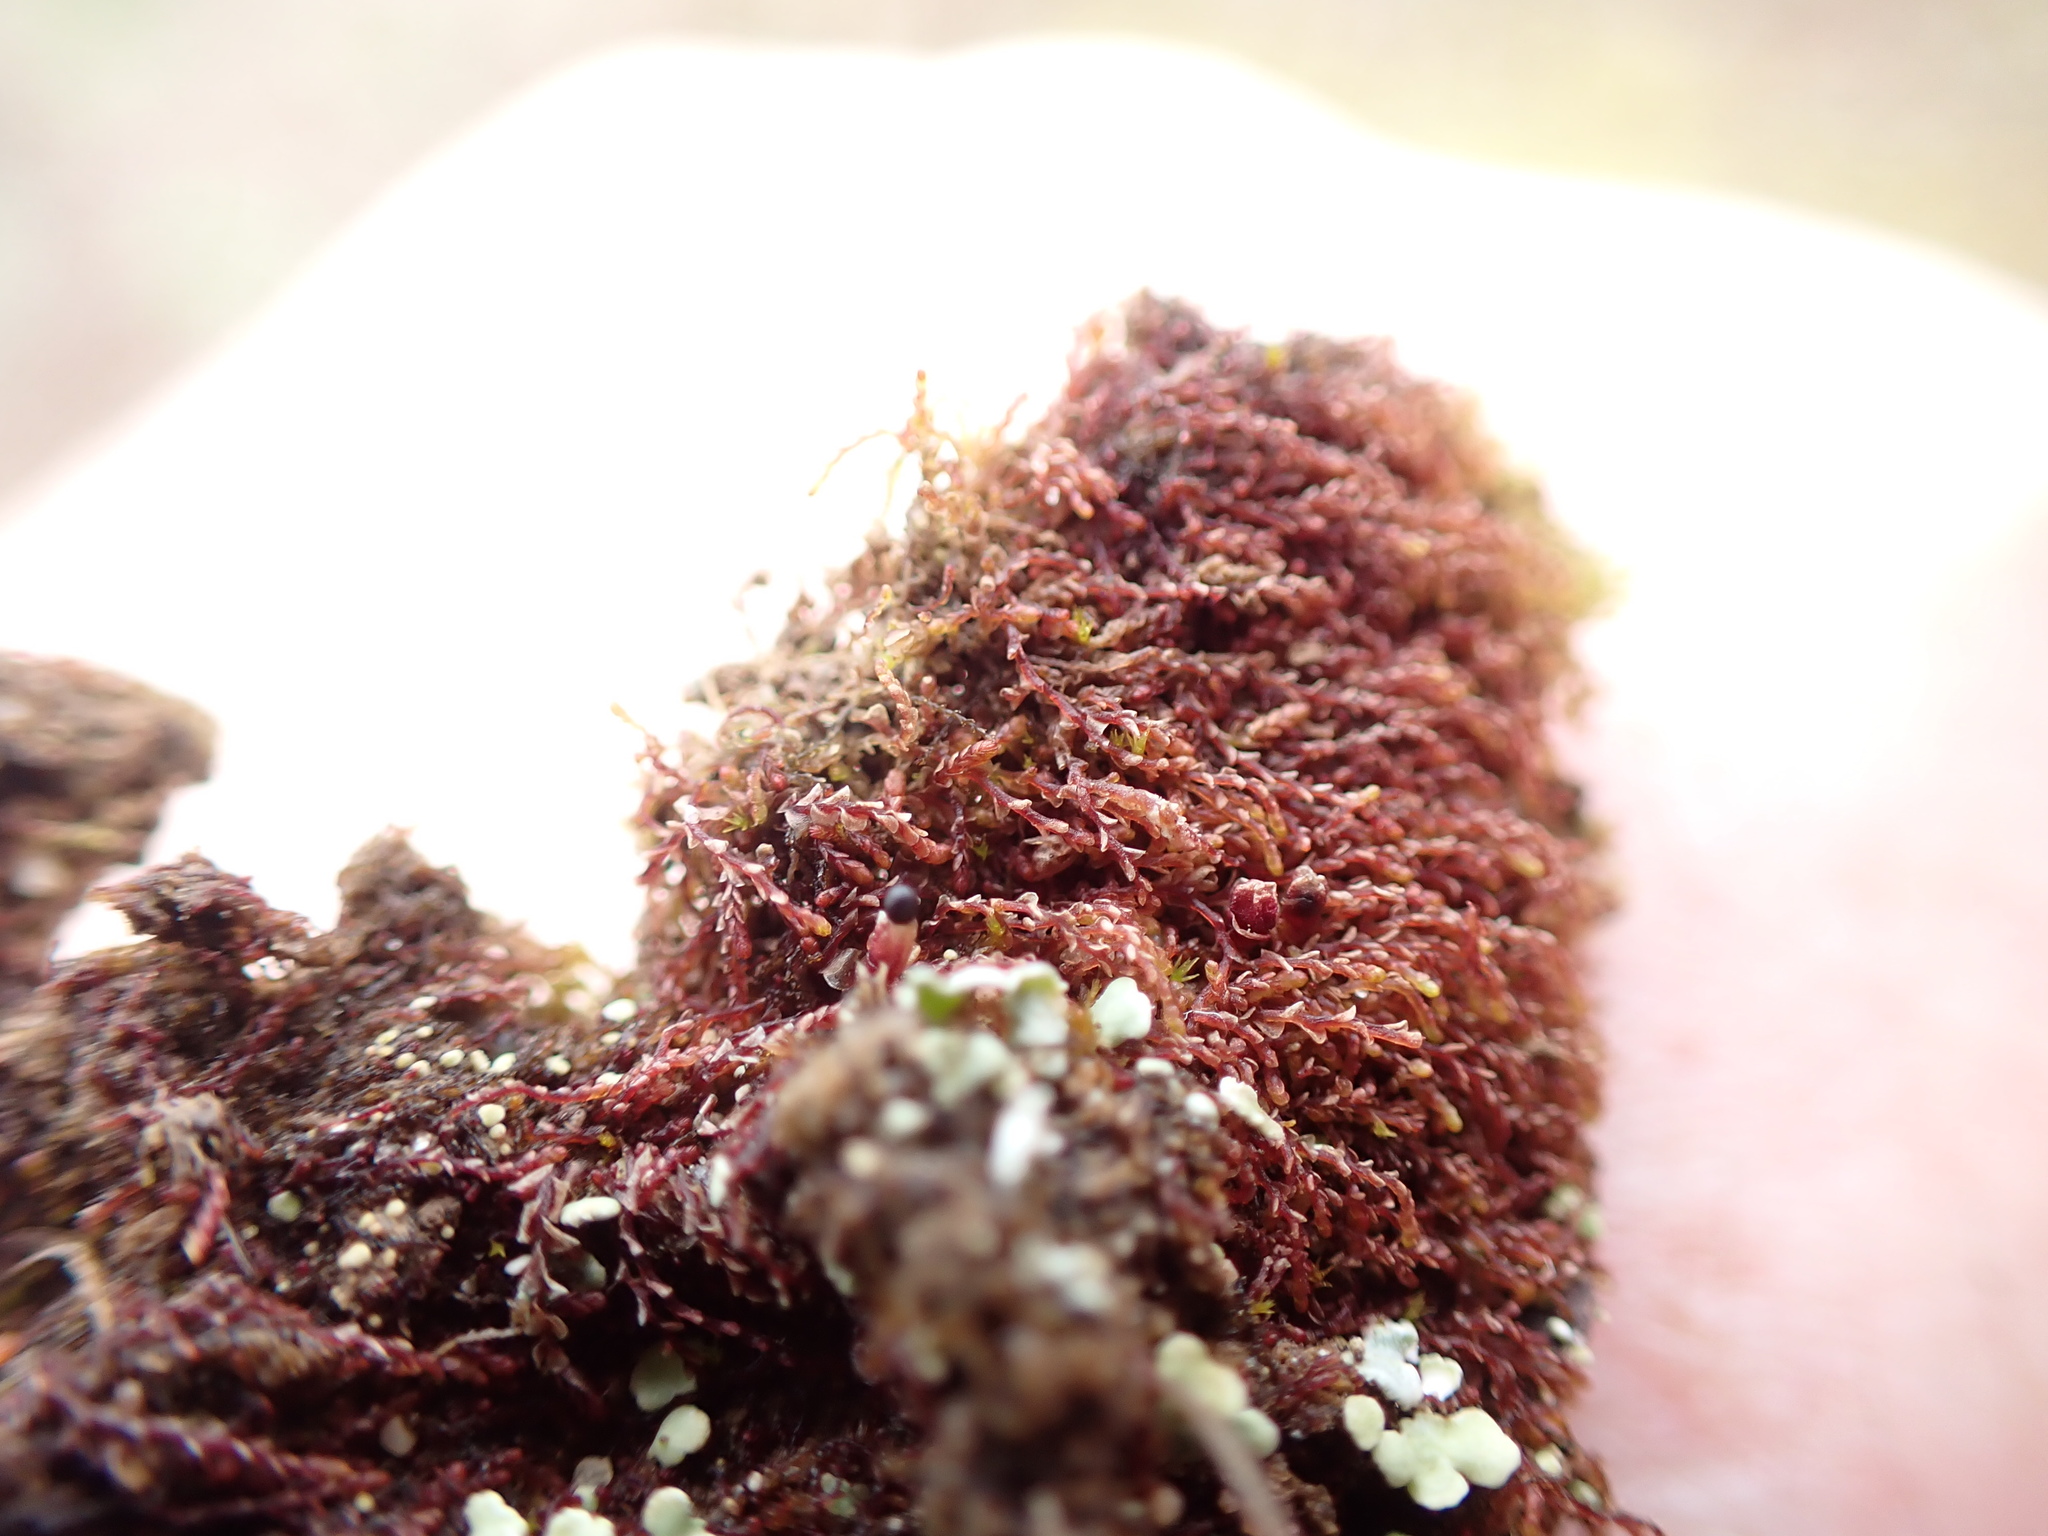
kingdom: Plantae
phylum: Marchantiophyta
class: Jungermanniopsida
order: Jungermanniales
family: Solenostomataceae
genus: Solenostoma
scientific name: Solenostoma rubrum
